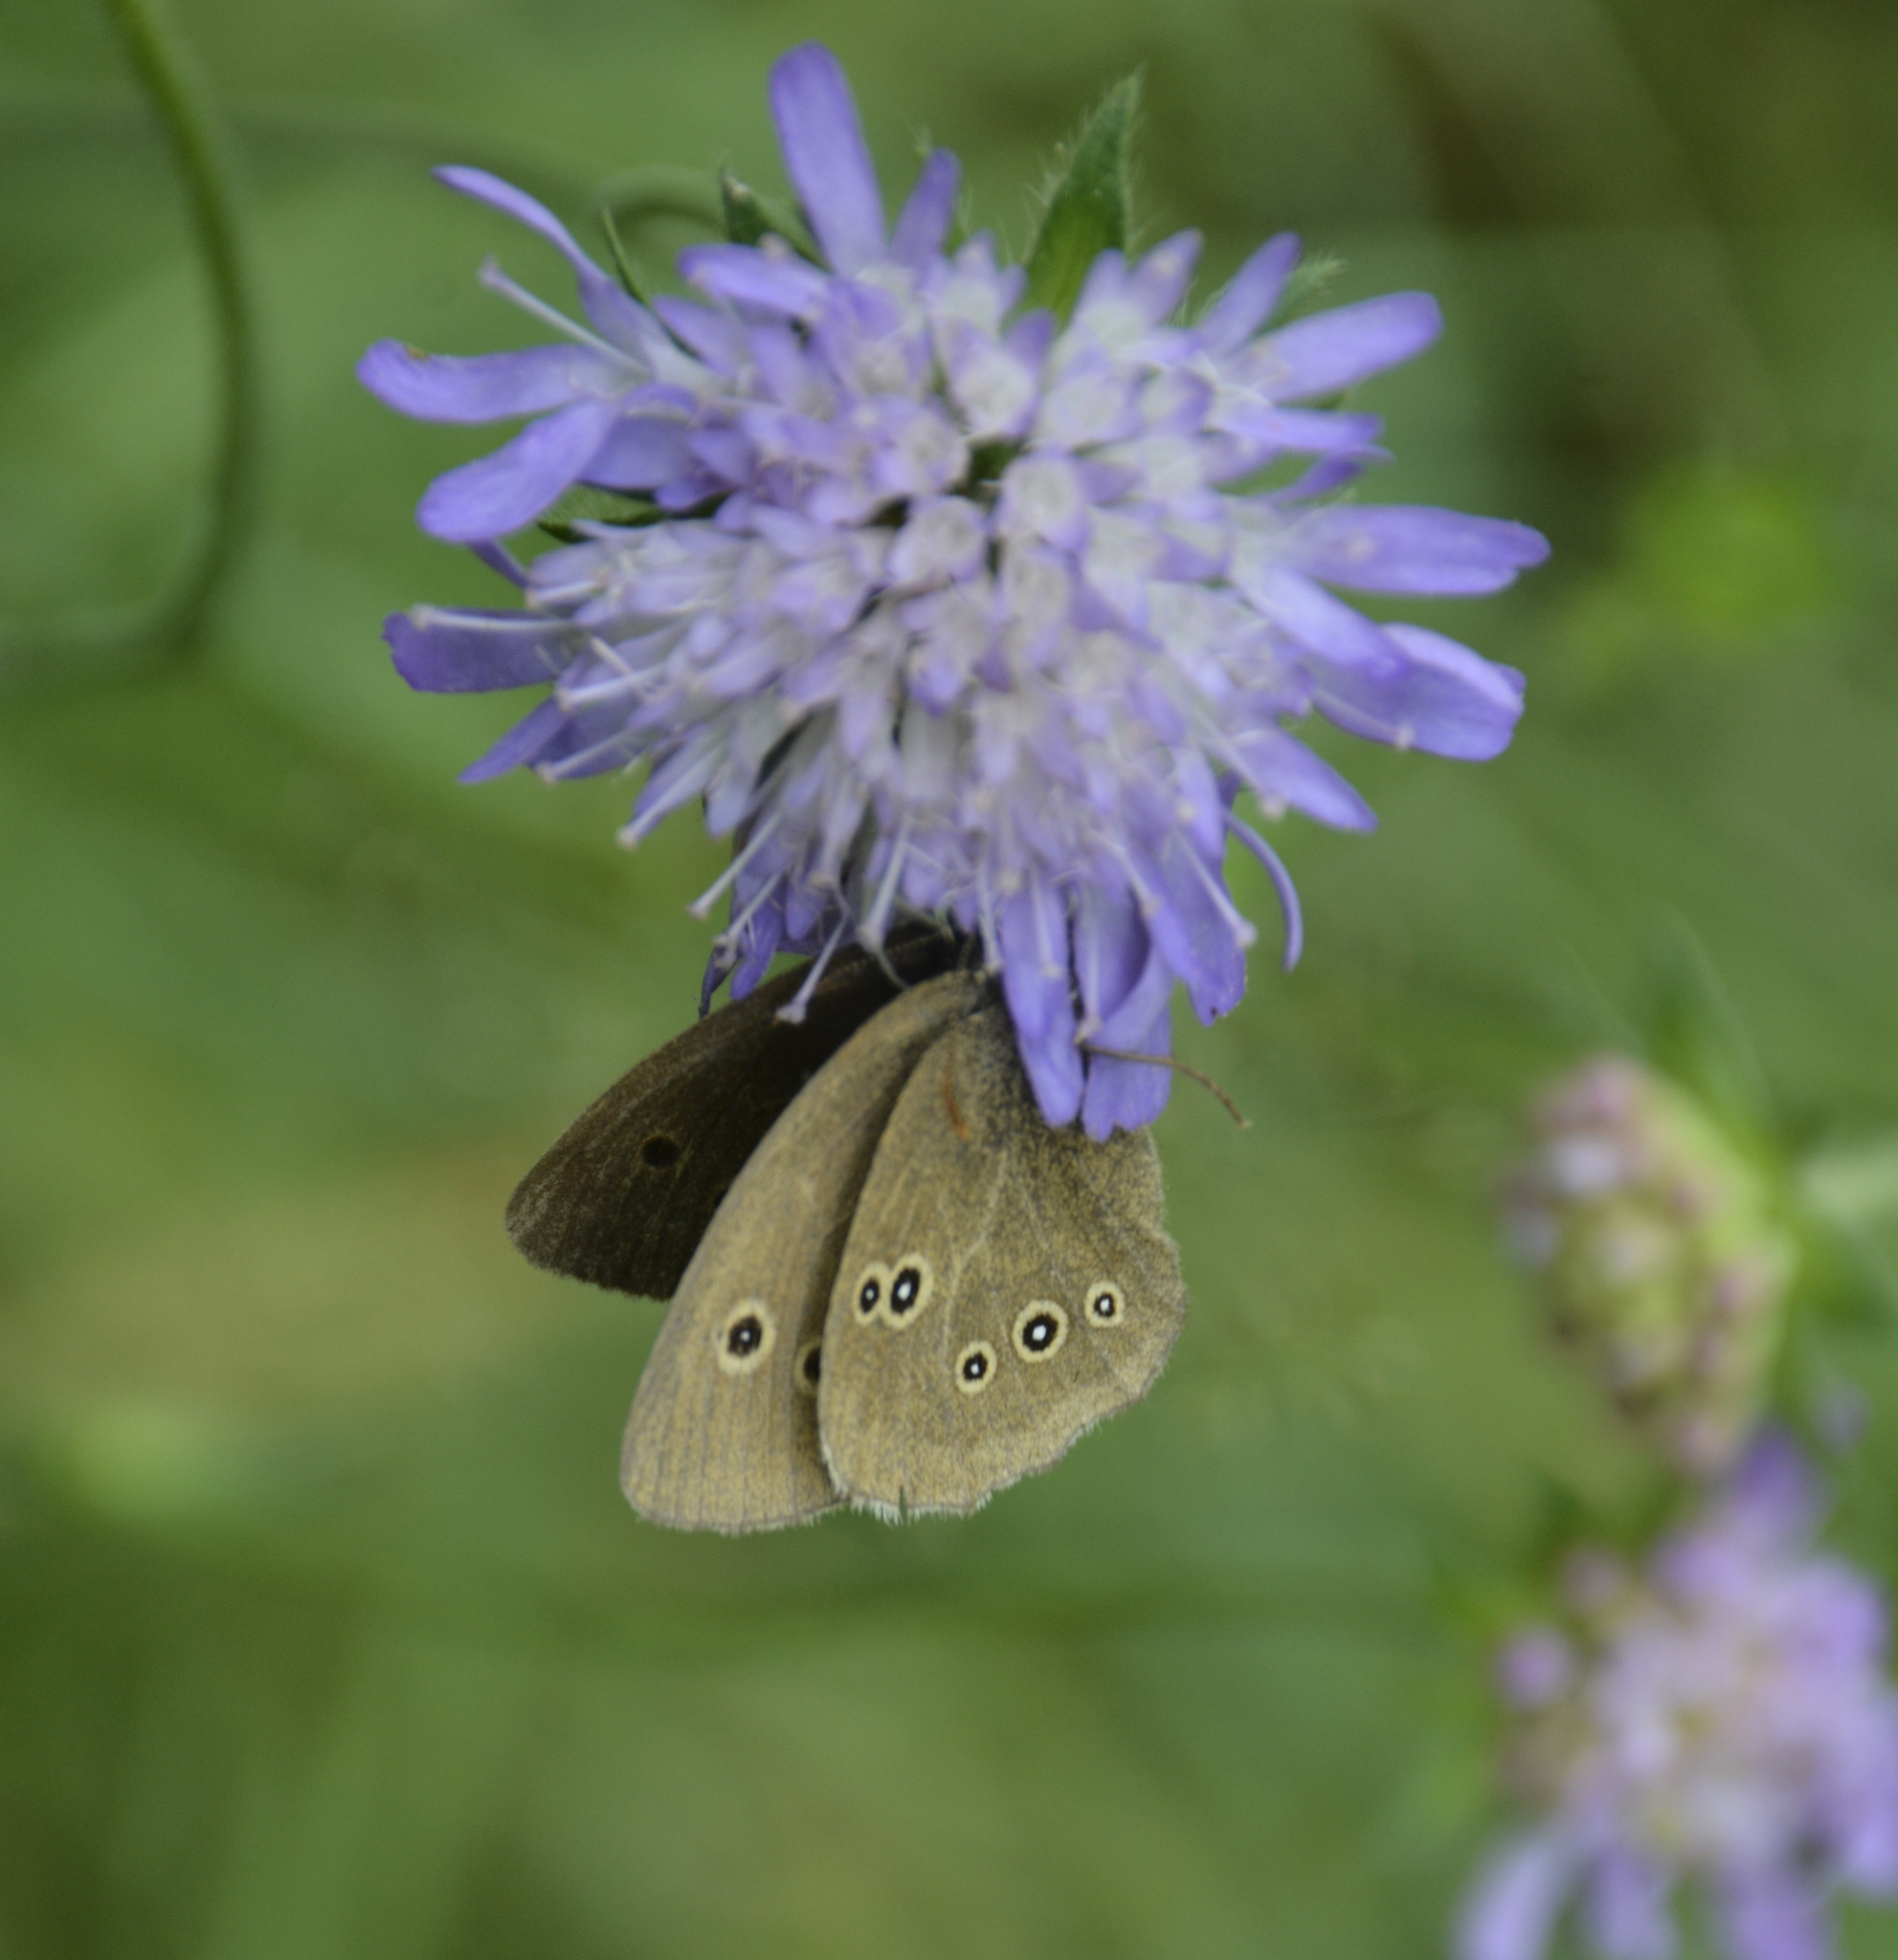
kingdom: Animalia
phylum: Arthropoda
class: Insecta
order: Lepidoptera
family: Nymphalidae
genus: Aphantopus
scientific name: Aphantopus hyperantus
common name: Ringlet
